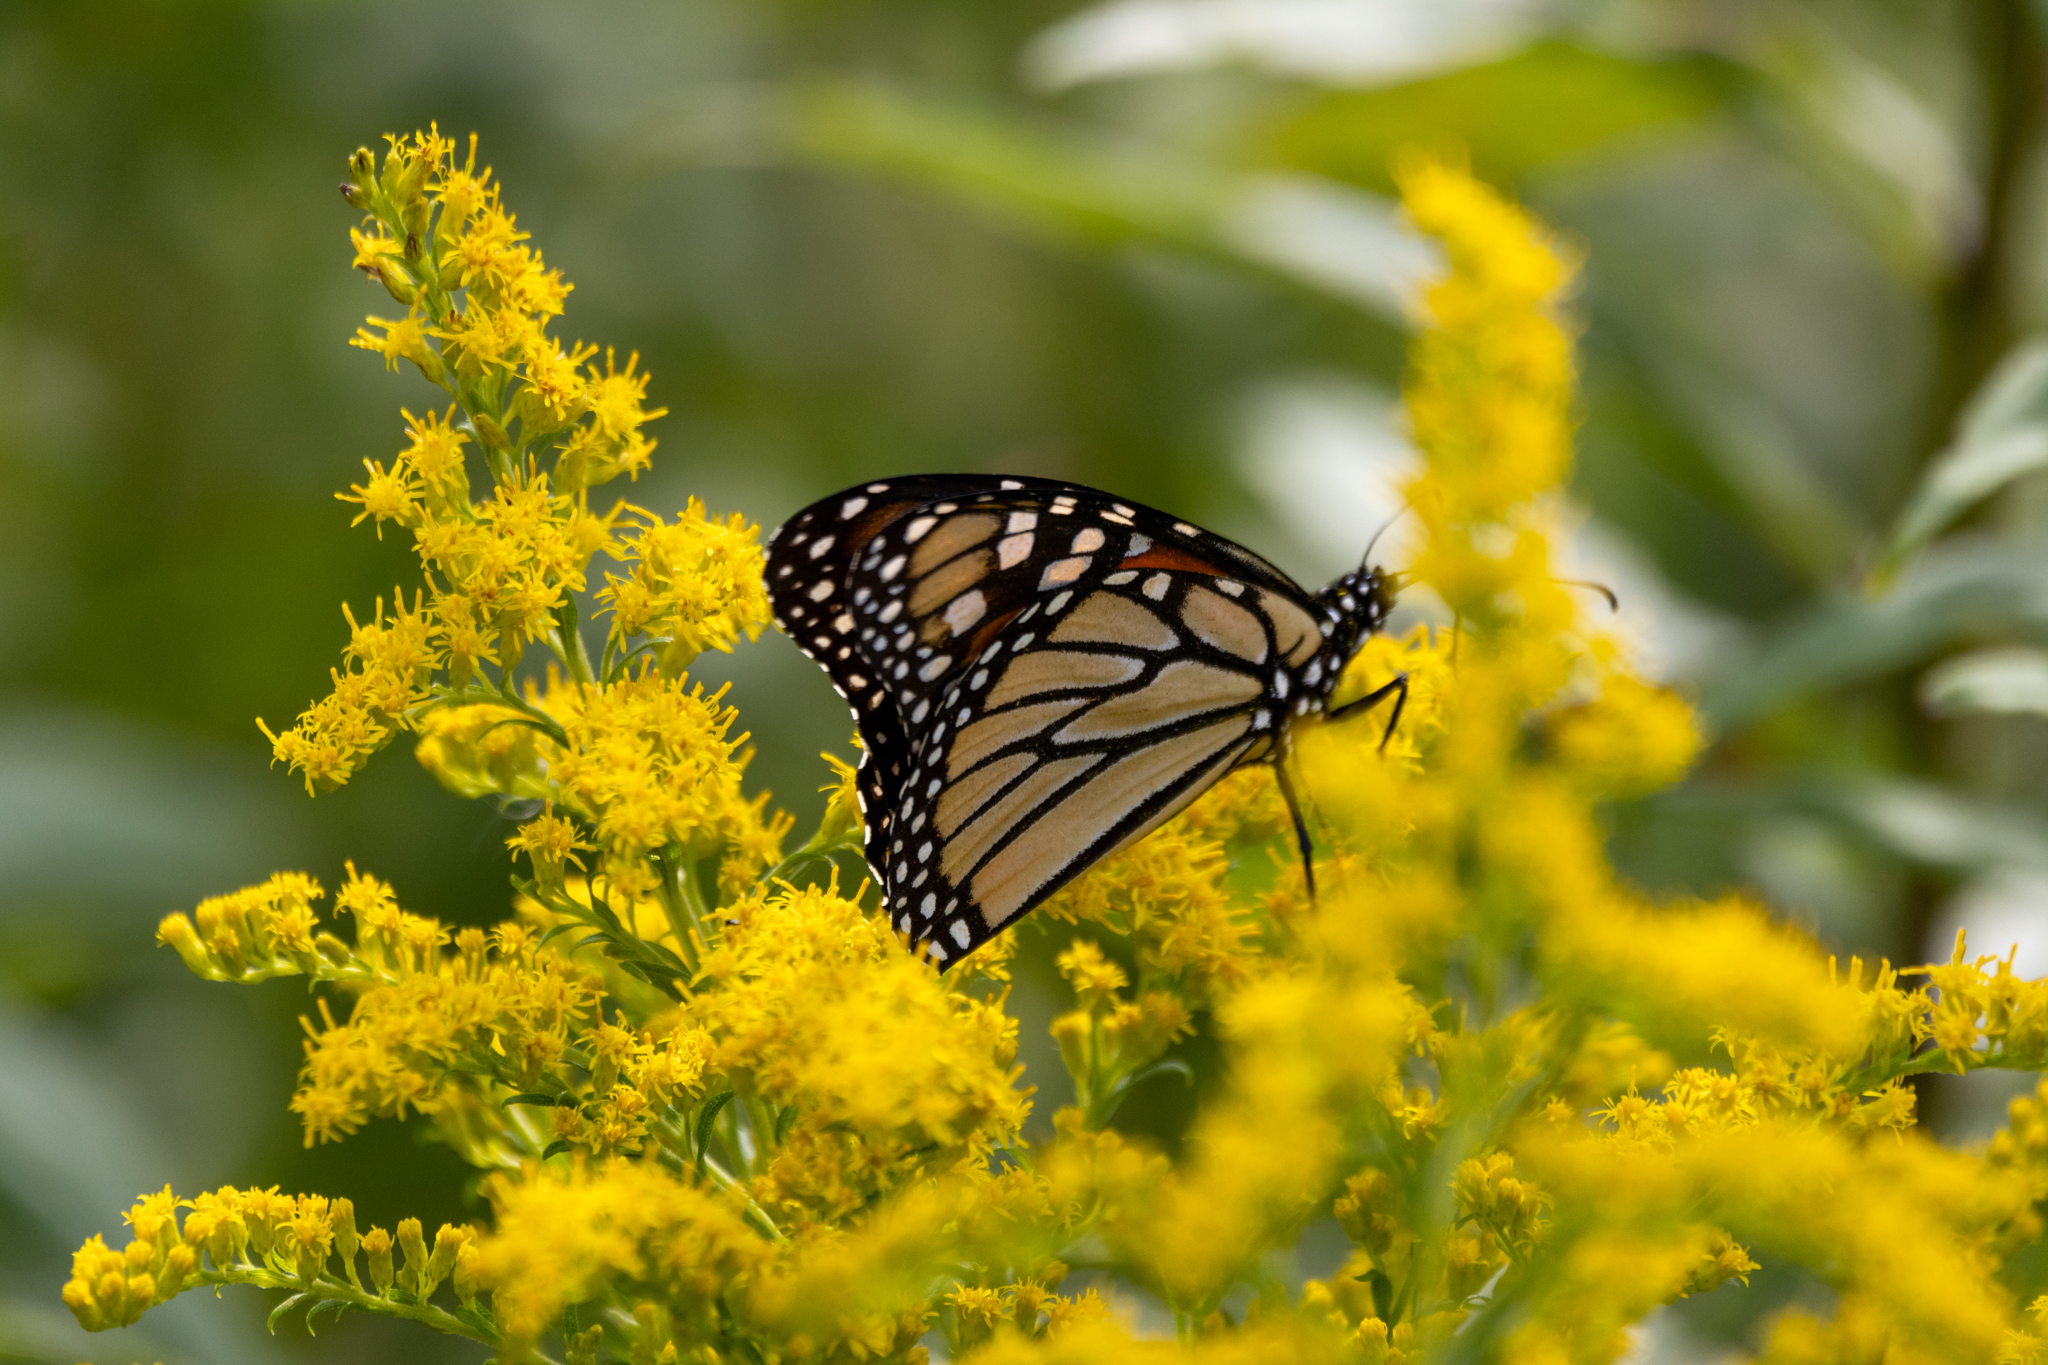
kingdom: Animalia
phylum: Arthropoda
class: Insecta
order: Lepidoptera
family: Nymphalidae
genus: Danaus
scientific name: Danaus plexippus
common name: Monarch
